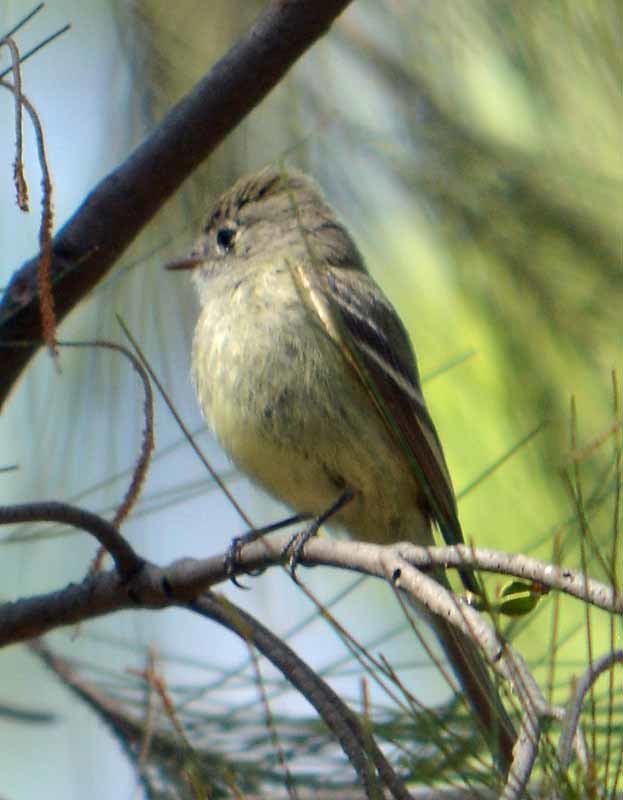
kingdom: Animalia
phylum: Chordata
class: Aves
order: Passeriformes
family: Tyrannidae
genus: Empidonax
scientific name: Empidonax hammondii
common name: Hammond's flycatcher
